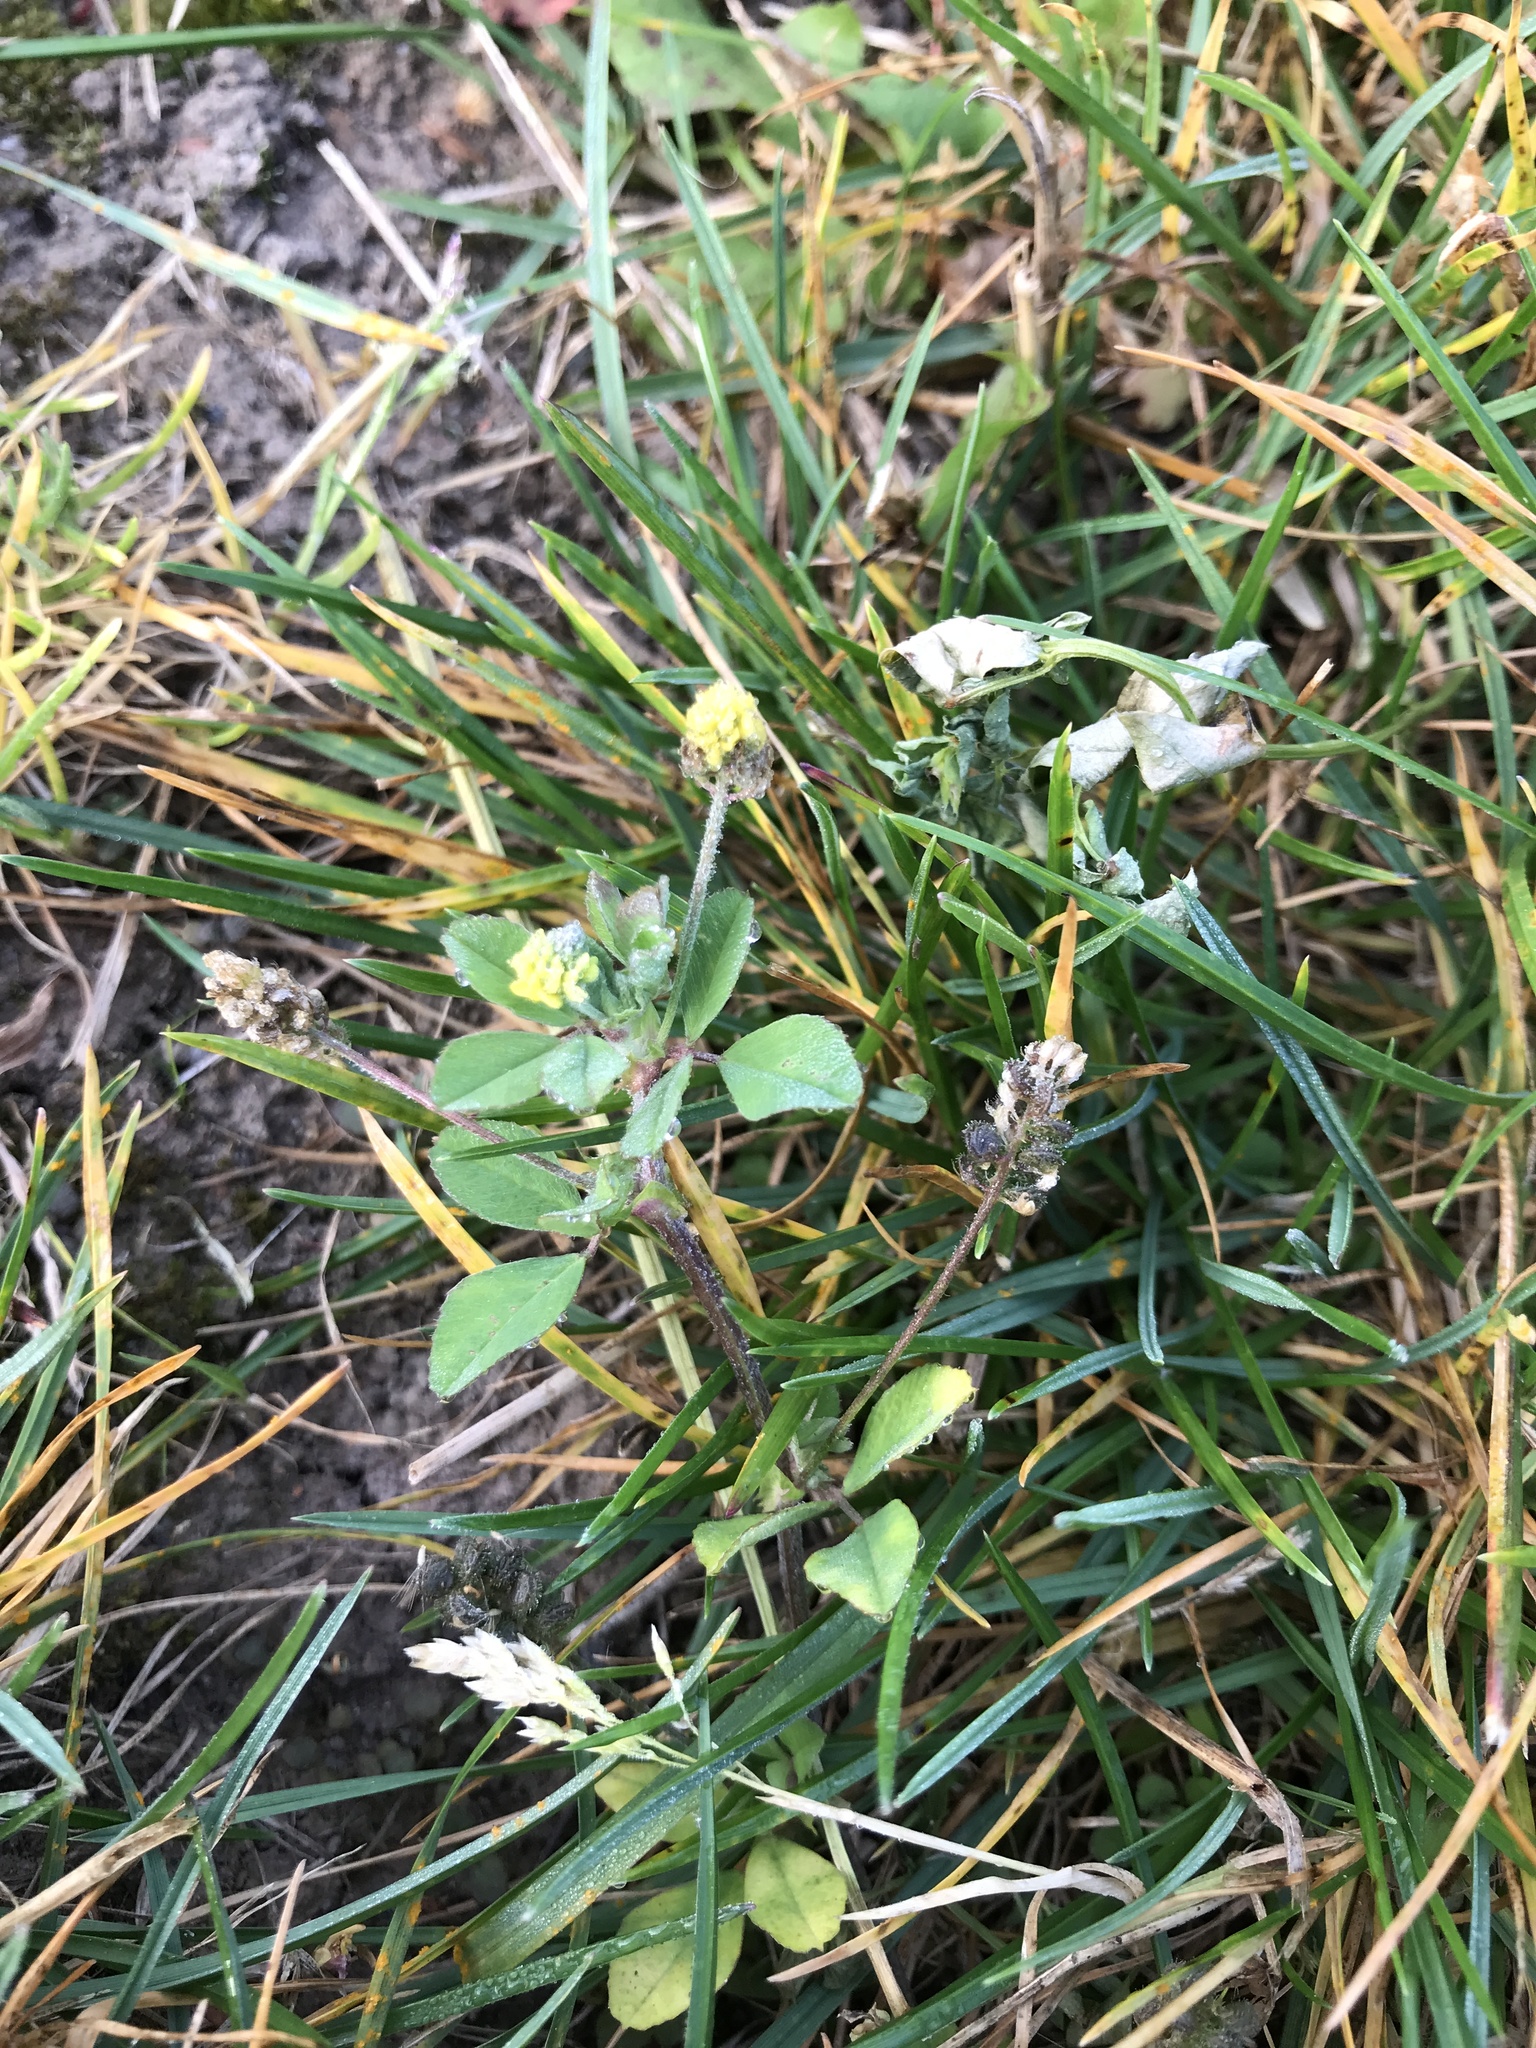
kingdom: Plantae
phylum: Tracheophyta
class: Magnoliopsida
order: Fabales
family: Fabaceae
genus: Medicago
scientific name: Medicago lupulina
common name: Black medick
